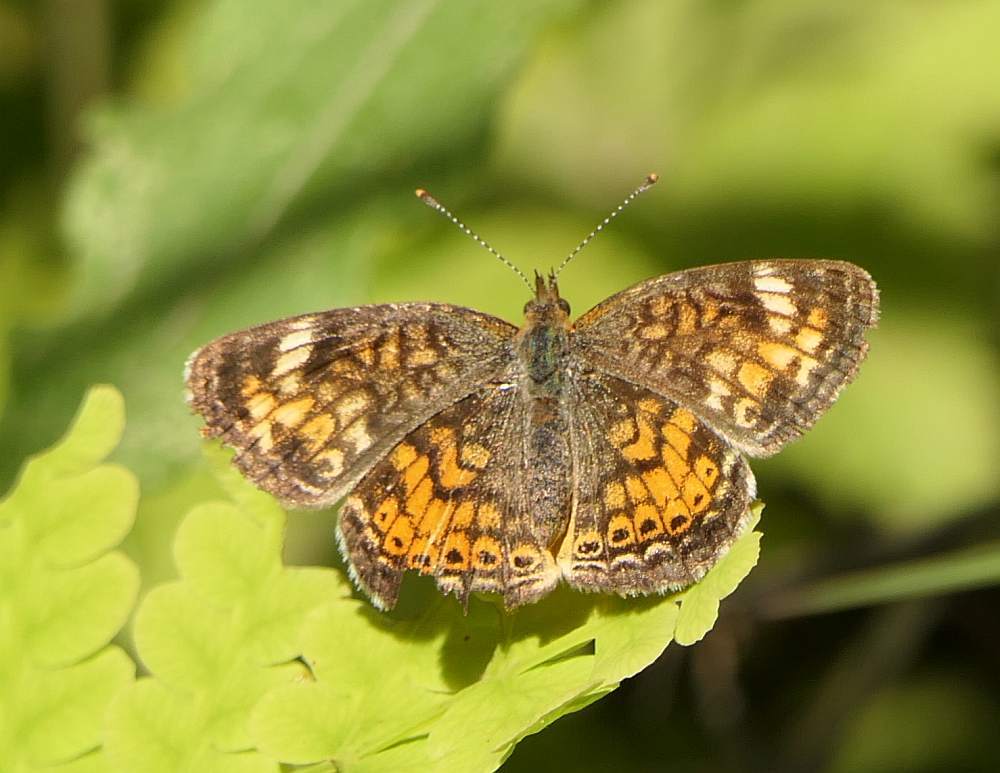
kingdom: Animalia
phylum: Arthropoda
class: Insecta
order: Lepidoptera
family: Nymphalidae
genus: Phyciodes
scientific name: Phyciodes tharos
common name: Pearl crescent
